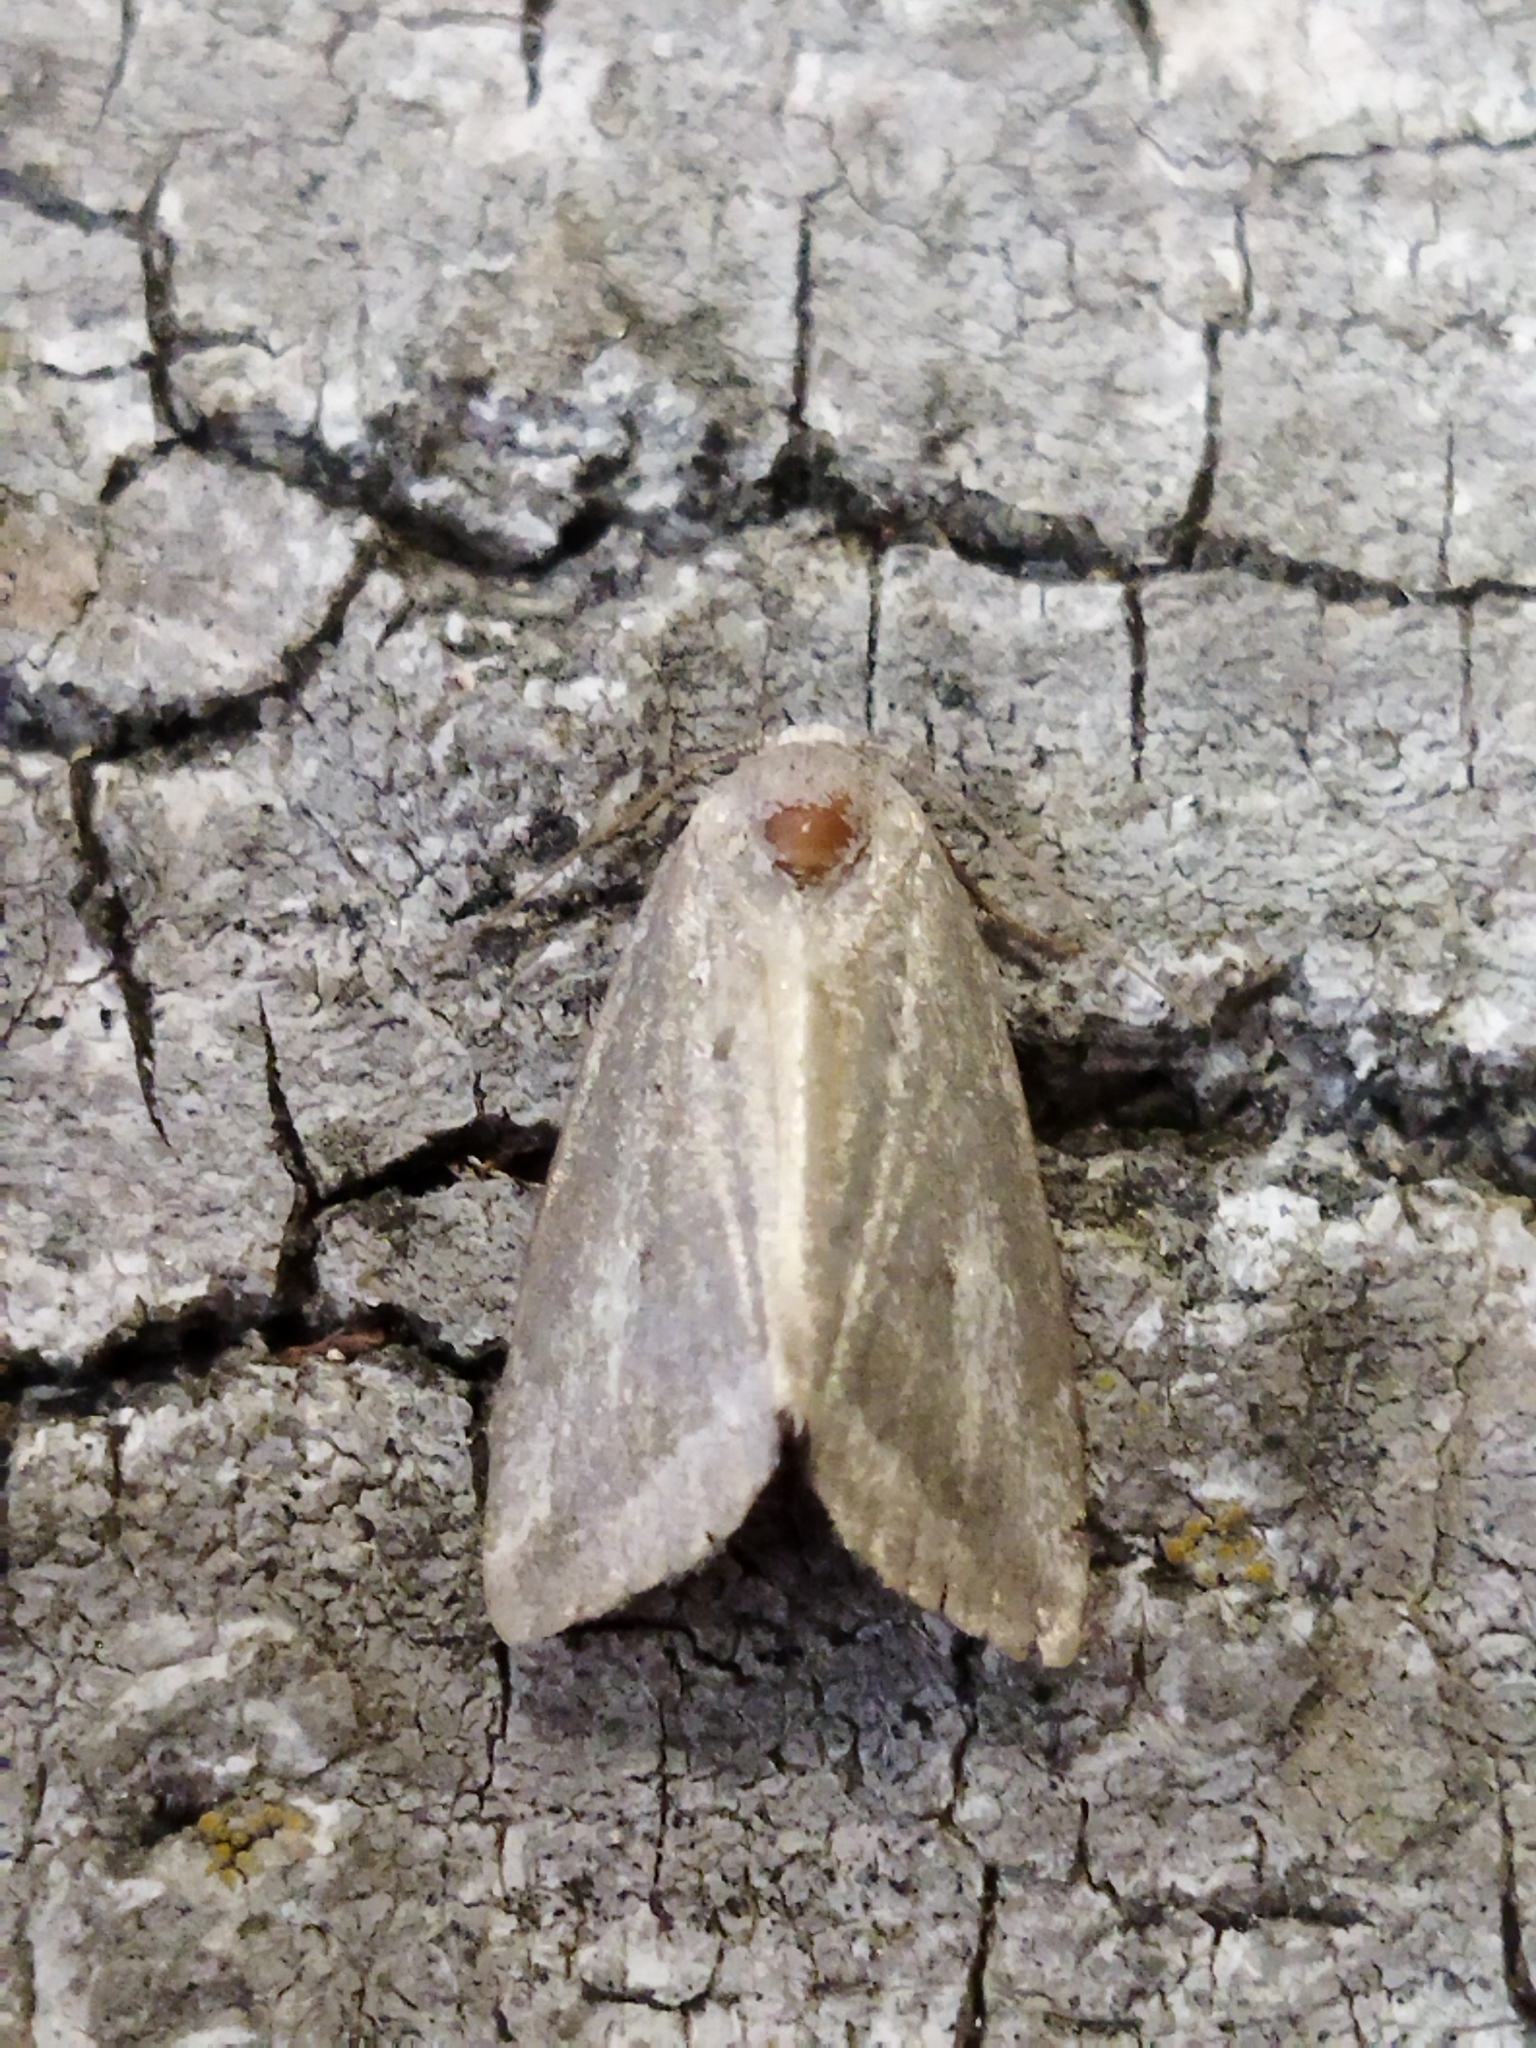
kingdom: Animalia
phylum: Arthropoda
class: Insecta
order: Lepidoptera
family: Noctuidae
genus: Phyllophila
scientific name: Phyllophila obliterata
